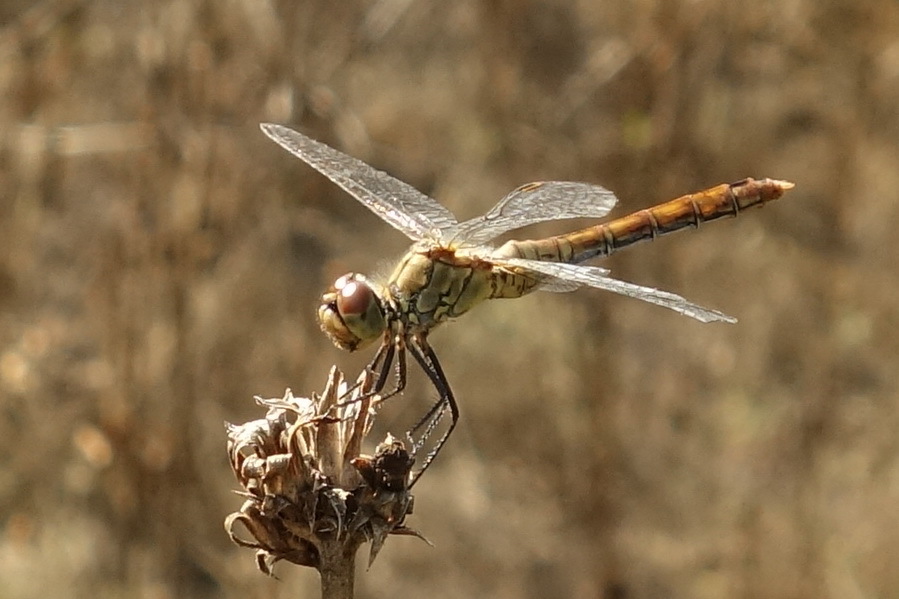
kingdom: Animalia
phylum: Arthropoda
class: Insecta
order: Odonata
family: Libellulidae
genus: Sympetrum
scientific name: Sympetrum sanguineum
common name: Ruddy darter
